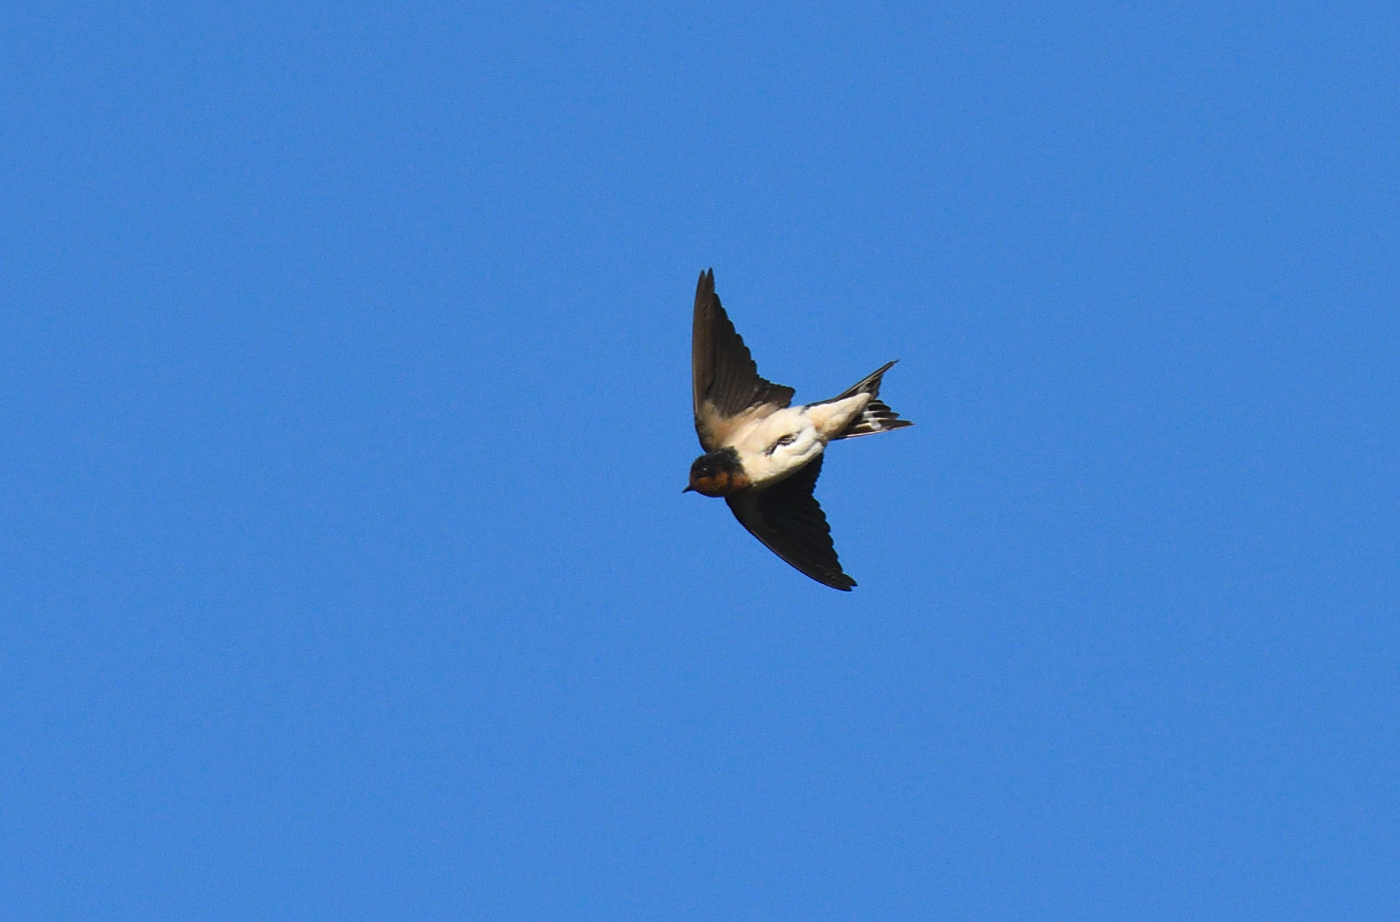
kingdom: Animalia
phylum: Chordata
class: Aves
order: Passeriformes
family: Hirundinidae
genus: Hirundo
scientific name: Hirundo rustica
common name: Barn swallow
